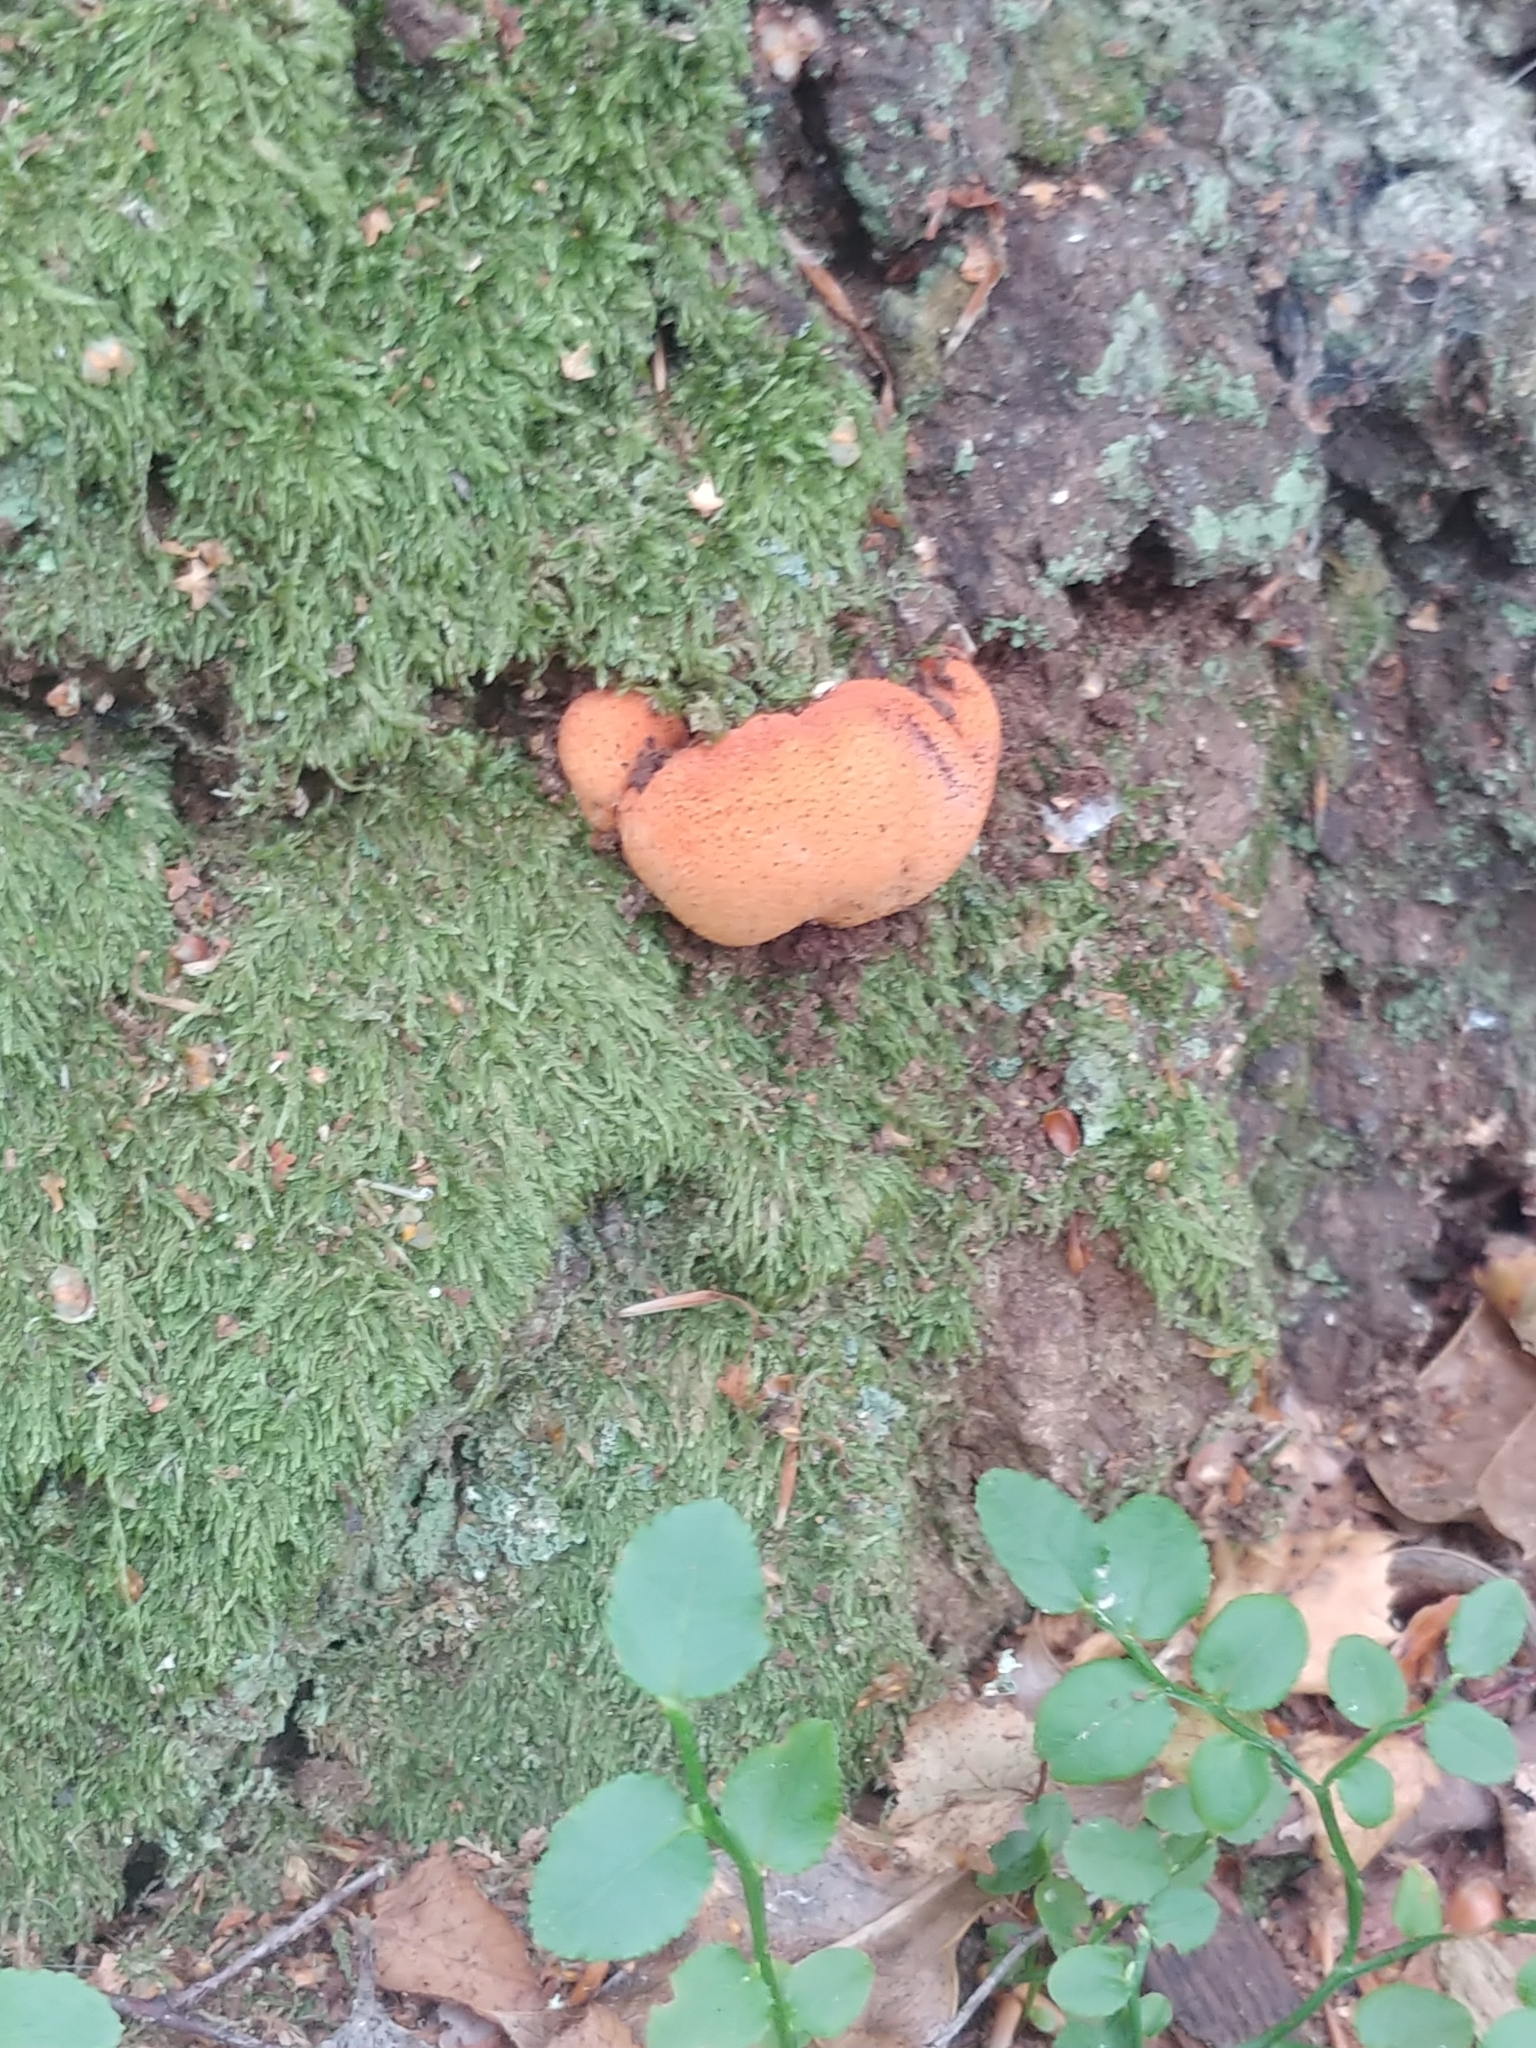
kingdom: Fungi
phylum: Basidiomycota
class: Agaricomycetes
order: Agaricales
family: Fistulinaceae
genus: Fistulina
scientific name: Fistulina hepatica
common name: Beef-steak fungus
